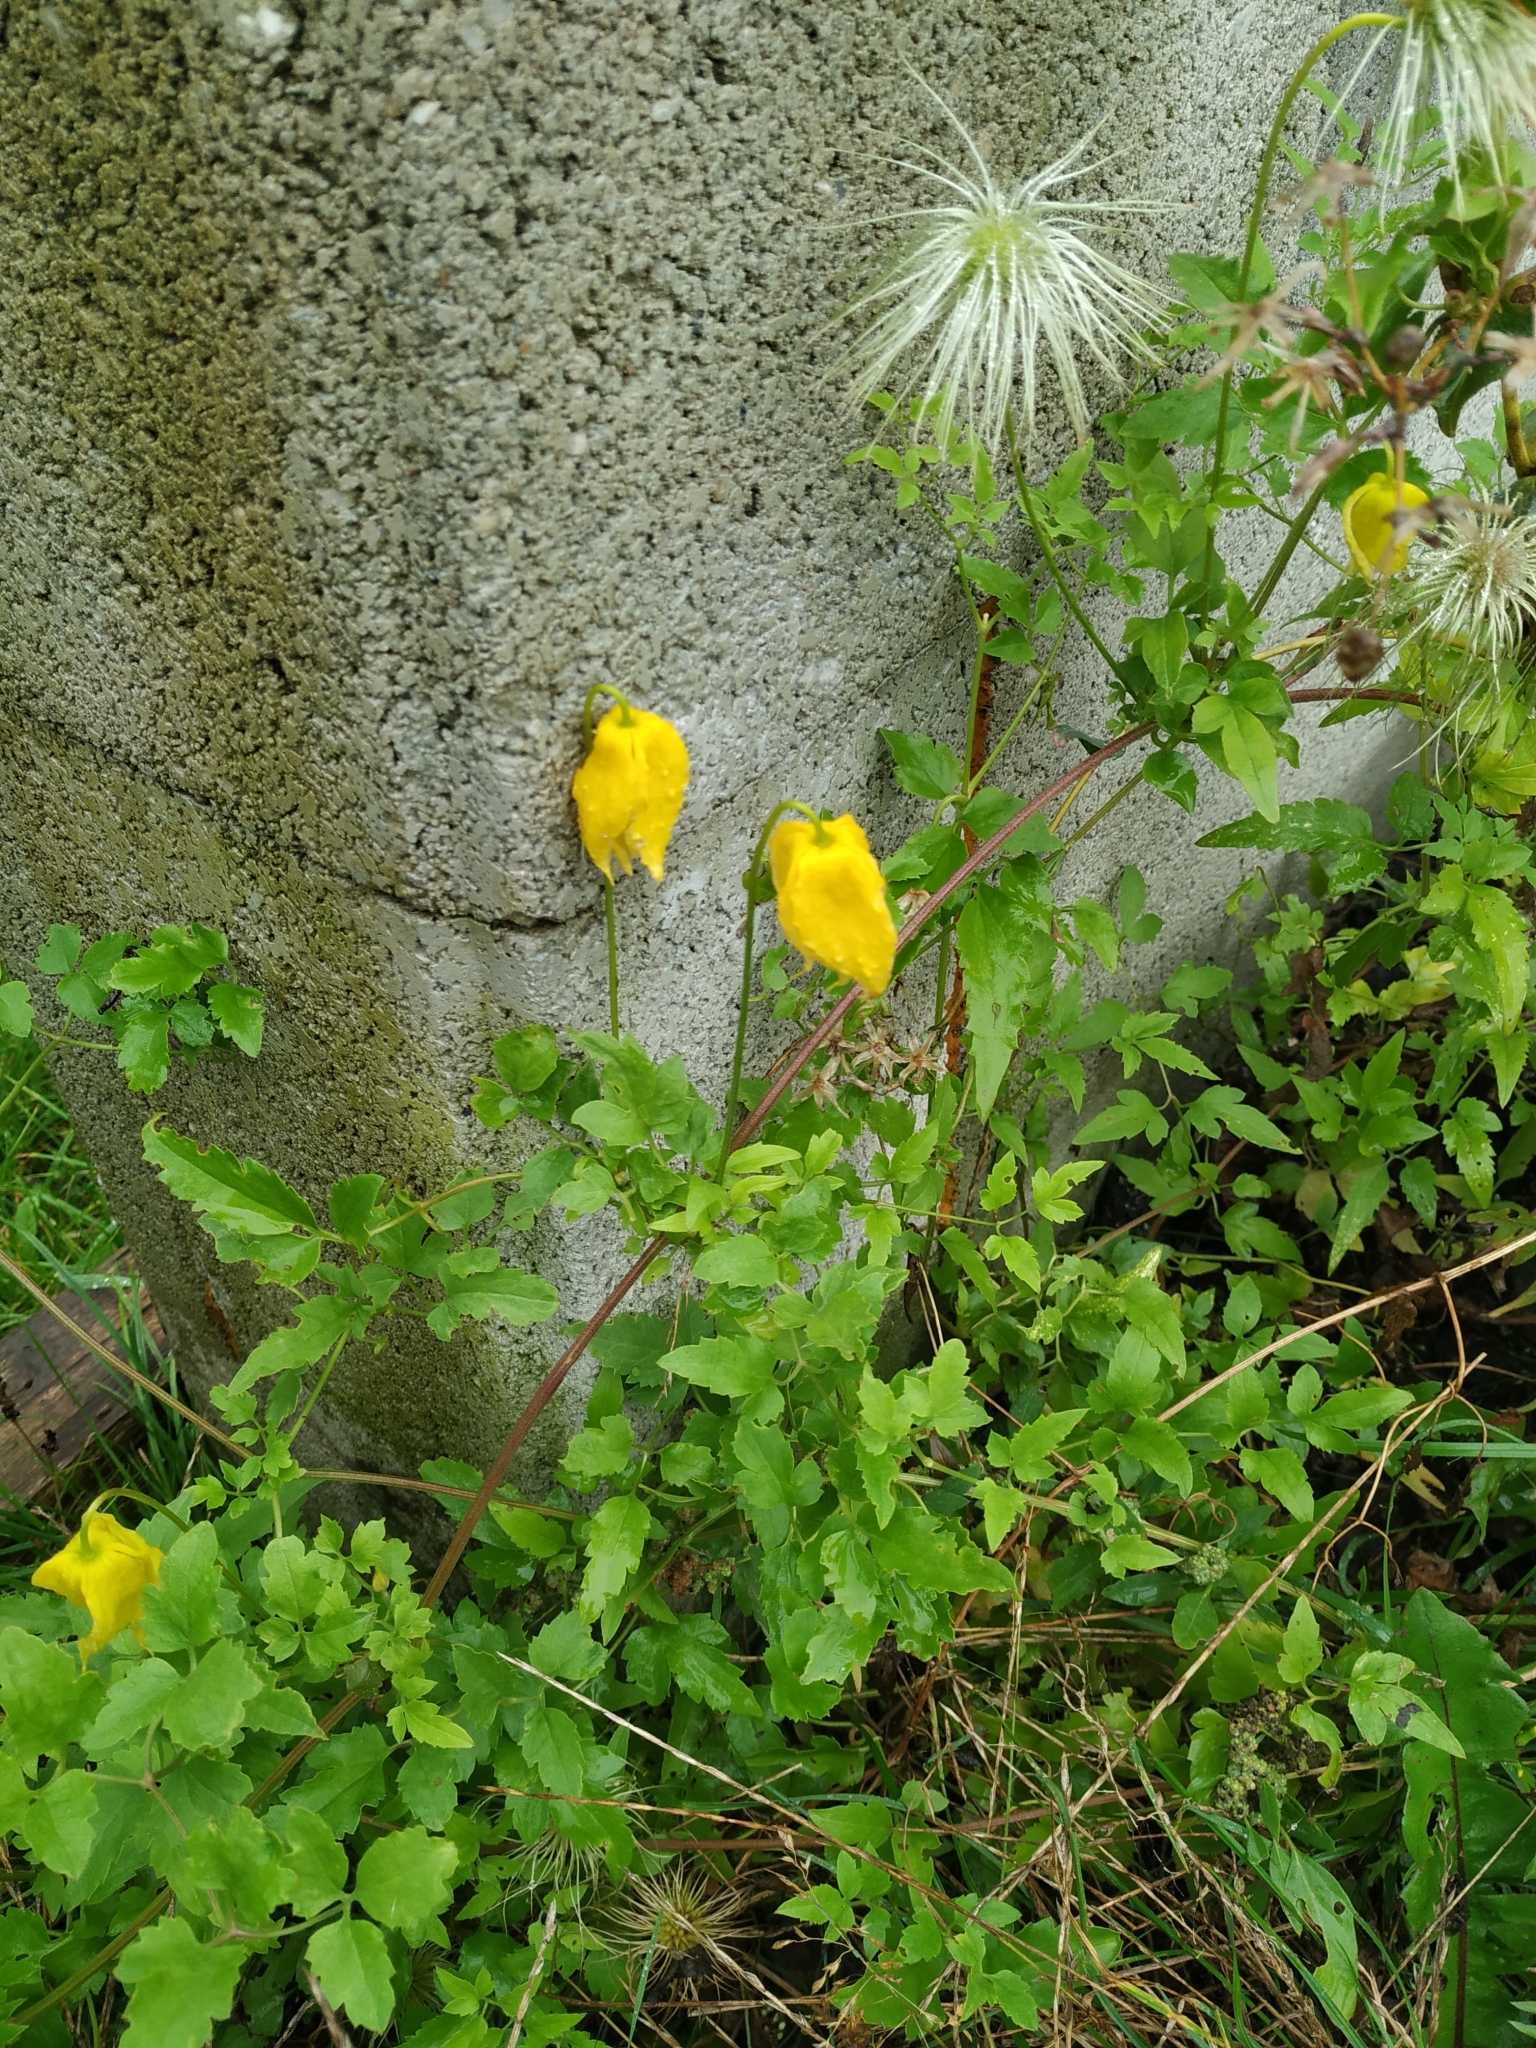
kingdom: Plantae
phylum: Tracheophyta
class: Magnoliopsida
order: Ranunculales
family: Ranunculaceae
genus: Clematis
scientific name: Clematis tangutica
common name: Orange-peel clematis
